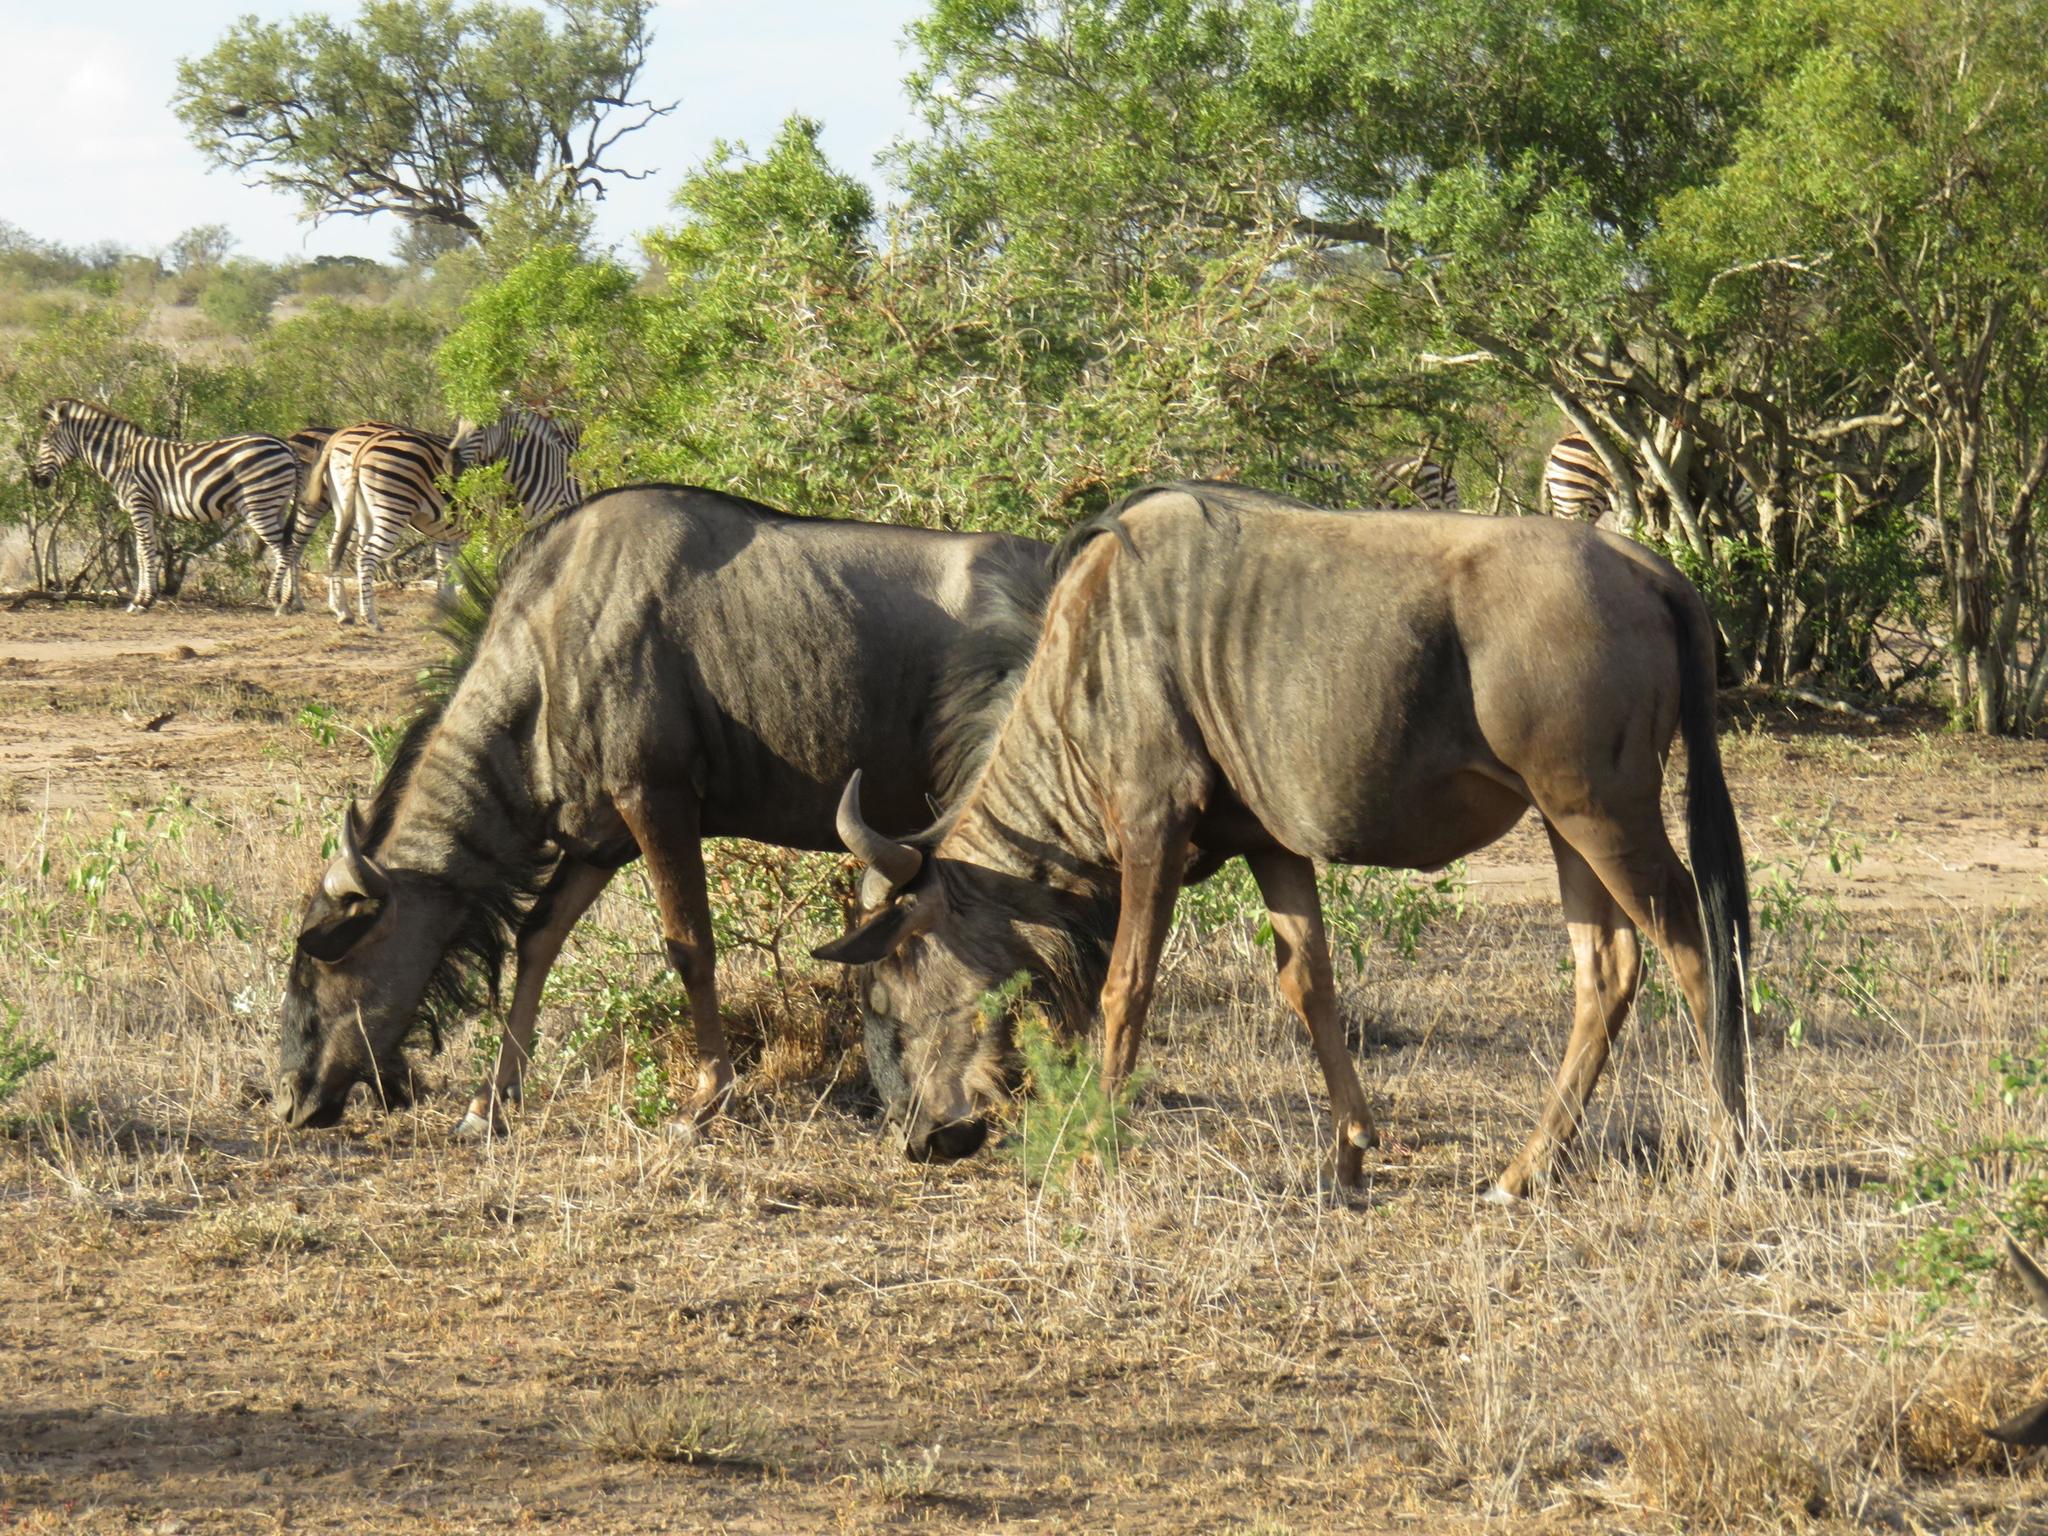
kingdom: Animalia
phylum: Chordata
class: Mammalia
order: Artiodactyla
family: Bovidae
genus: Connochaetes
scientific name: Connochaetes taurinus
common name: Blue wildebeest
